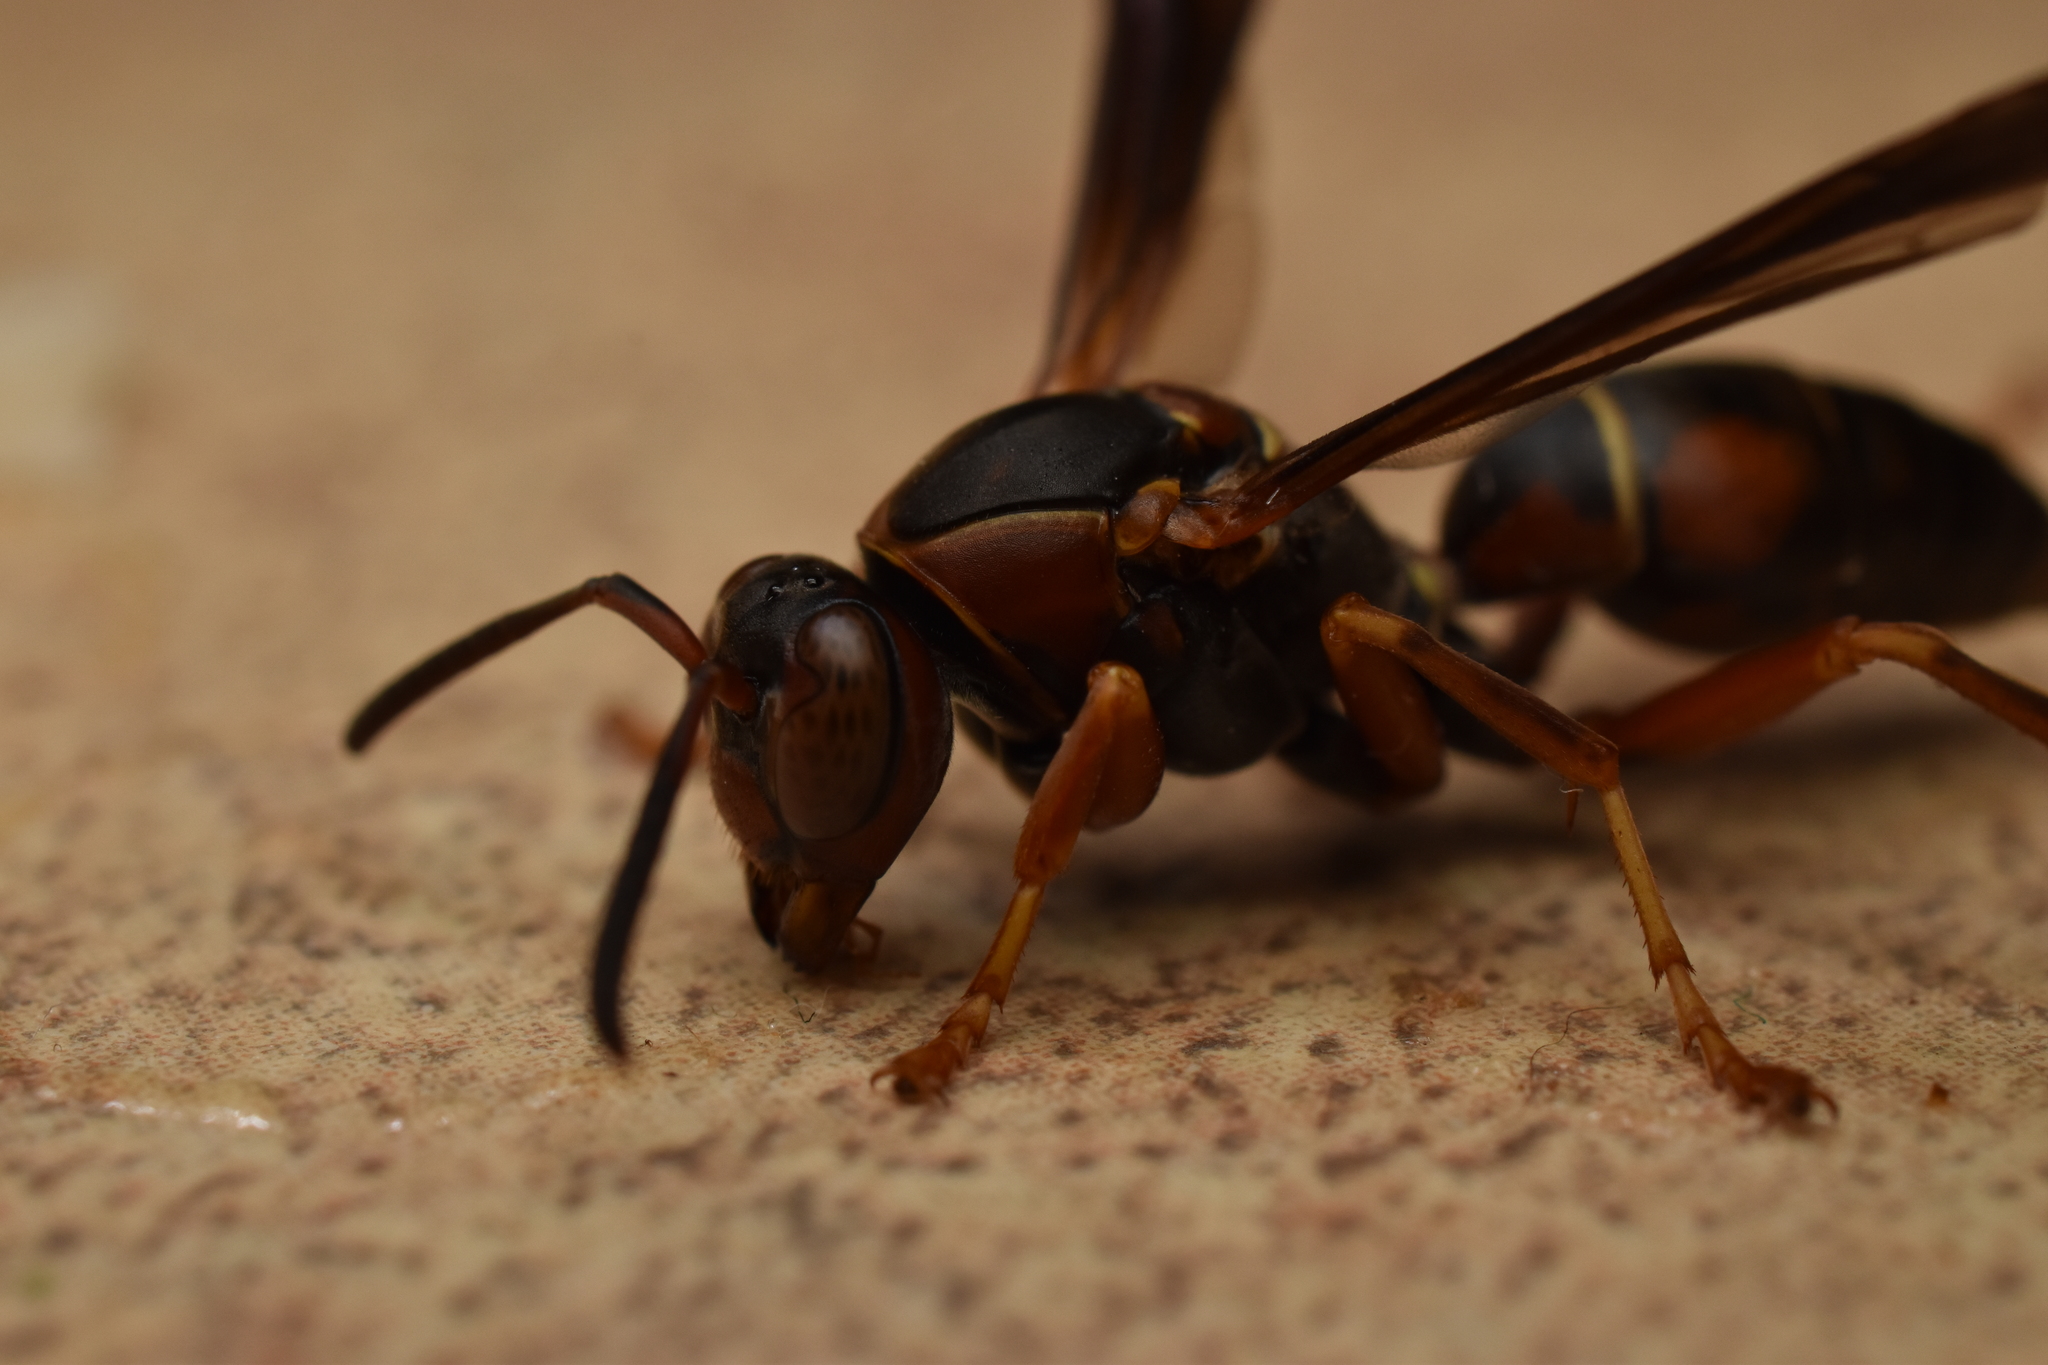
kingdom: Animalia
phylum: Arthropoda
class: Insecta
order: Hymenoptera
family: Eumenidae
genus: Polistes
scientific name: Polistes fuscatus
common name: Dark paper wasp
